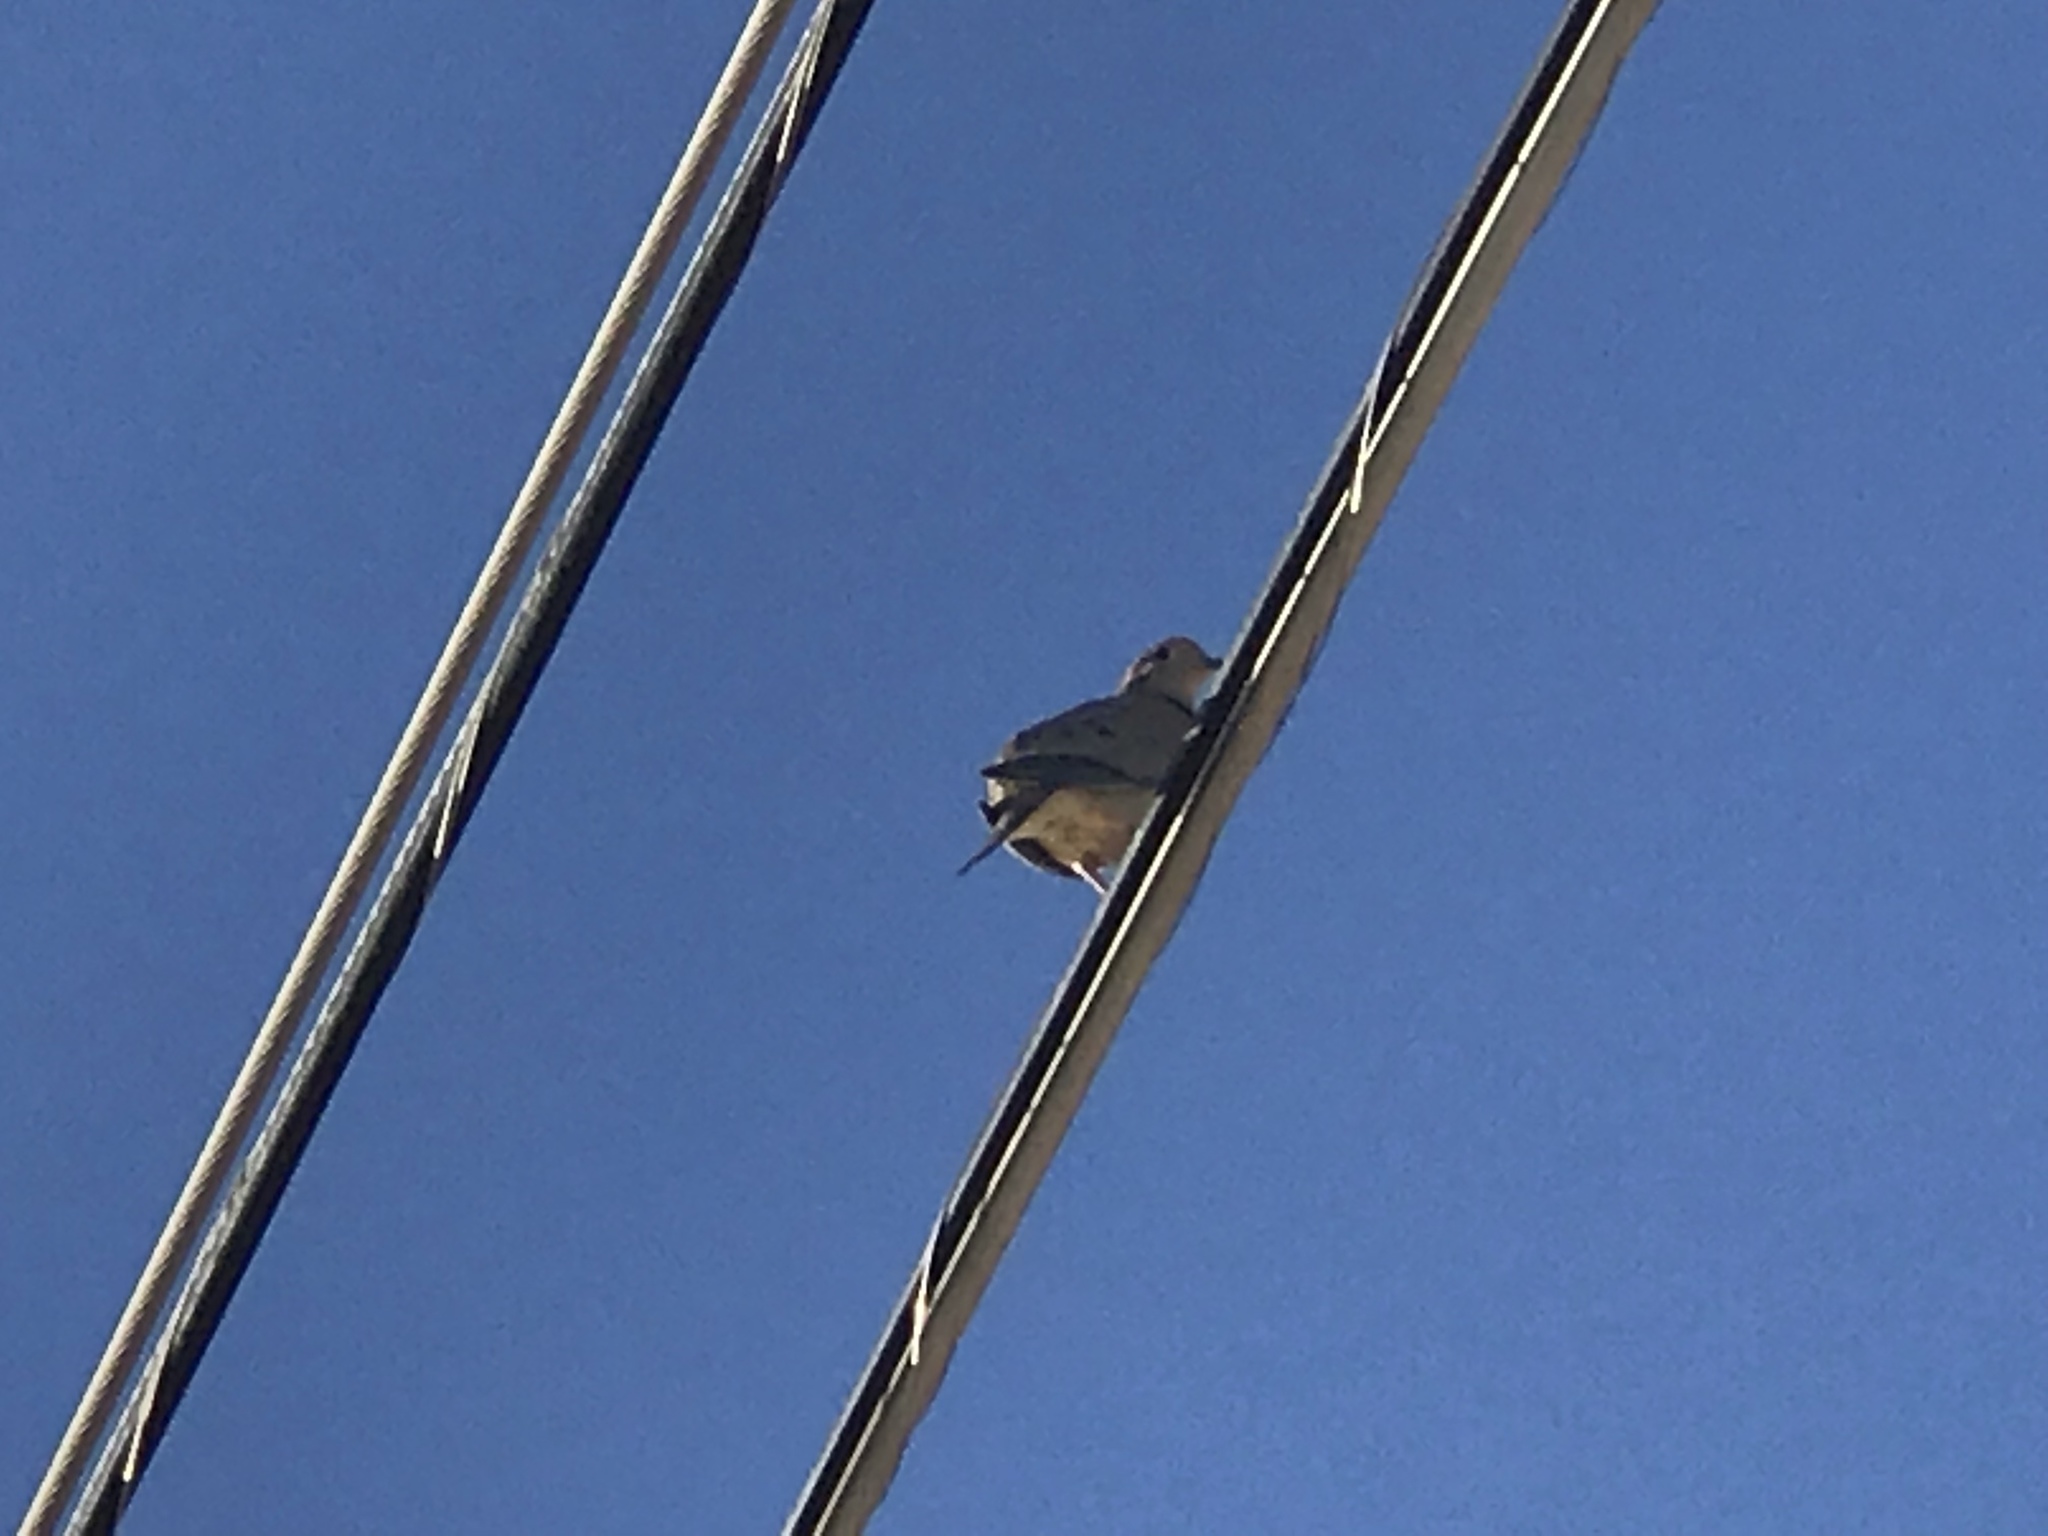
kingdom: Animalia
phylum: Chordata
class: Aves
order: Columbiformes
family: Columbidae
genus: Zenaida
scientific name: Zenaida macroura
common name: Mourning dove
